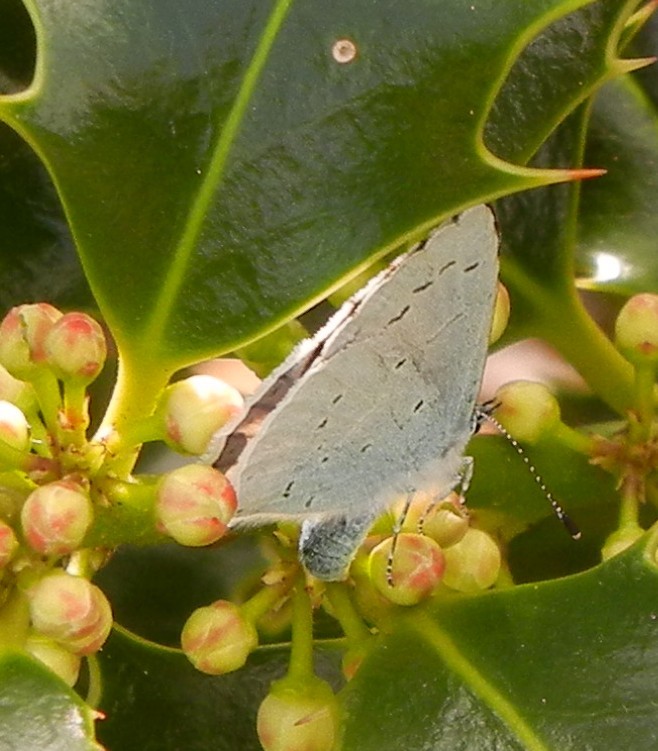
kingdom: Animalia
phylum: Arthropoda
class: Insecta
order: Lepidoptera
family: Lycaenidae
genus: Celastrina
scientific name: Celastrina argiolus
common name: Holly blue
